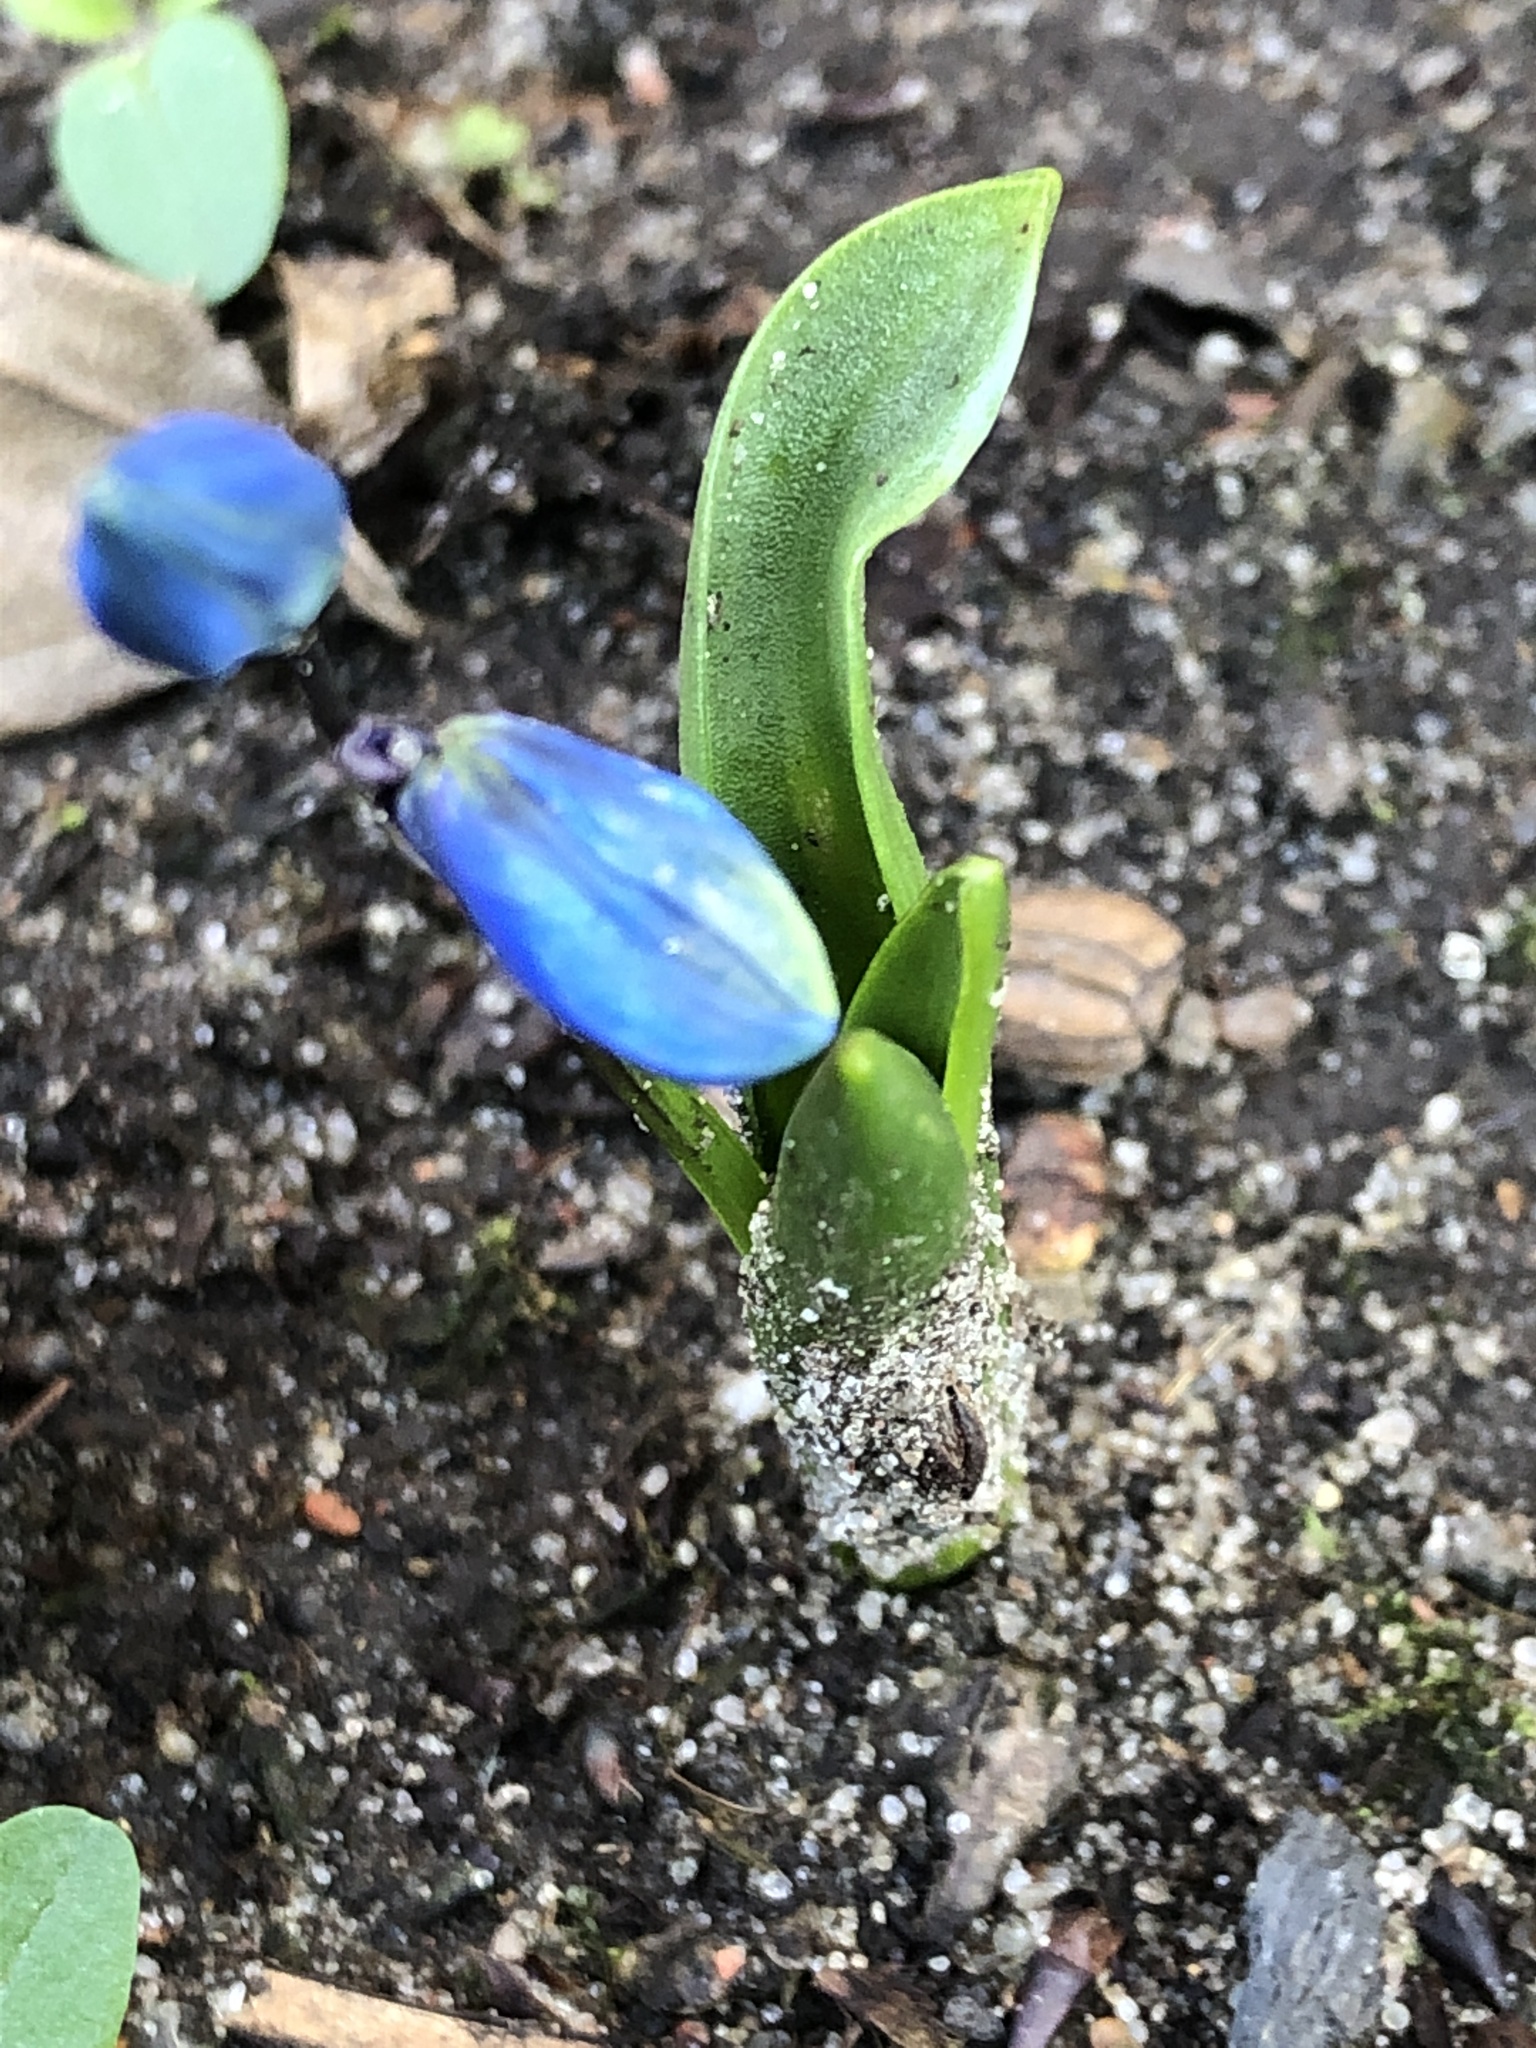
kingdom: Plantae
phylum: Tracheophyta
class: Liliopsida
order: Asparagales
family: Asparagaceae
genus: Scilla
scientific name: Scilla siberica
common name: Siberian squill
